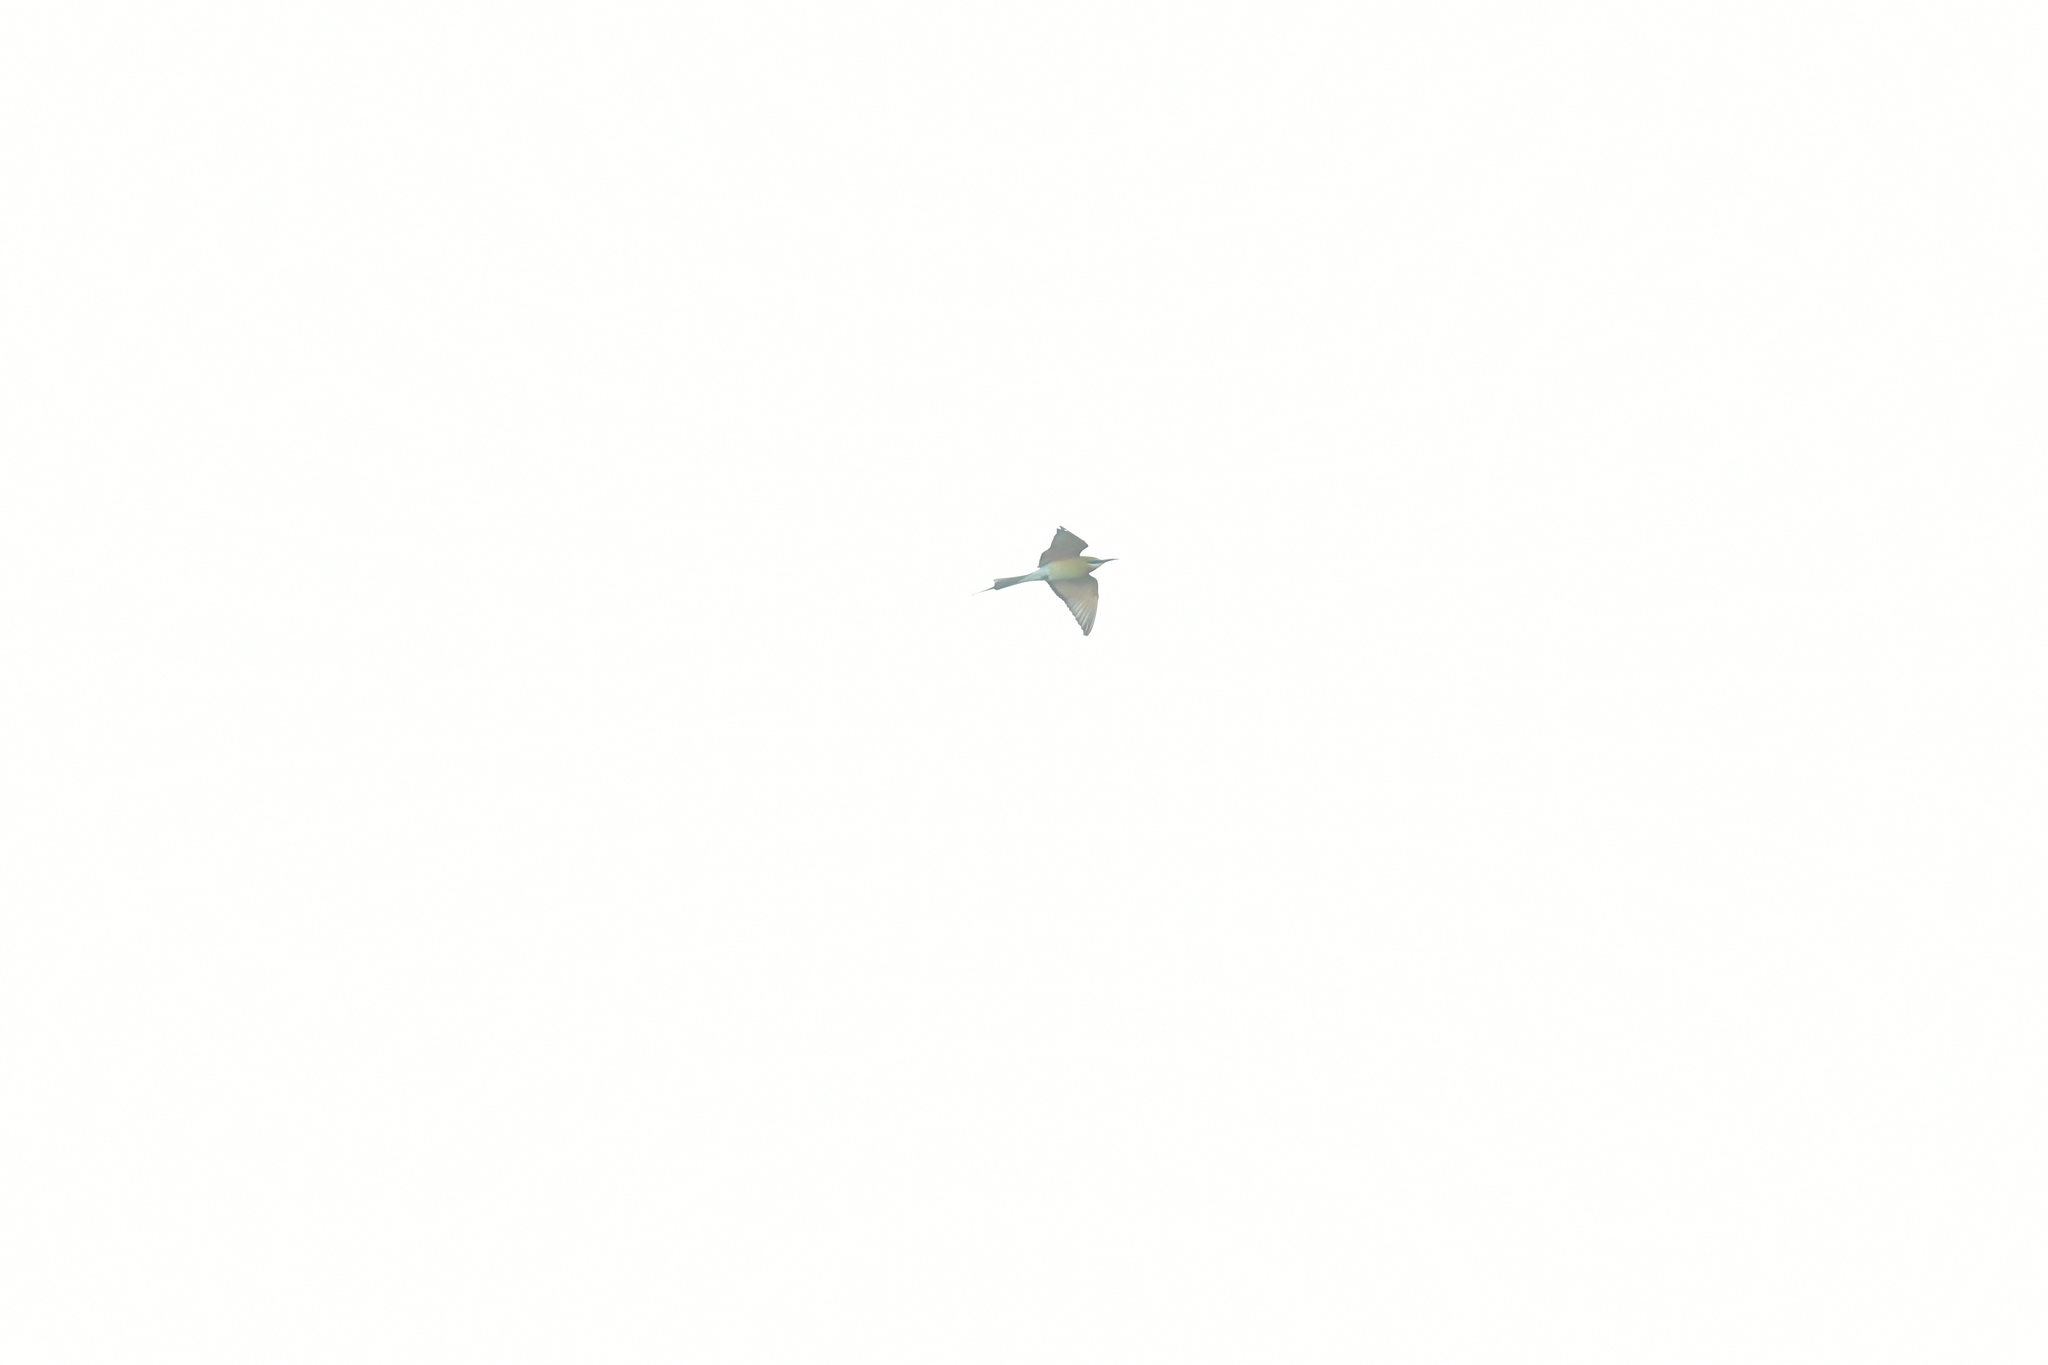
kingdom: Animalia
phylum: Chordata
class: Aves
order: Coraciiformes
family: Meropidae
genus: Merops
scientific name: Merops philippinus
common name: Blue-tailed bee-eater
